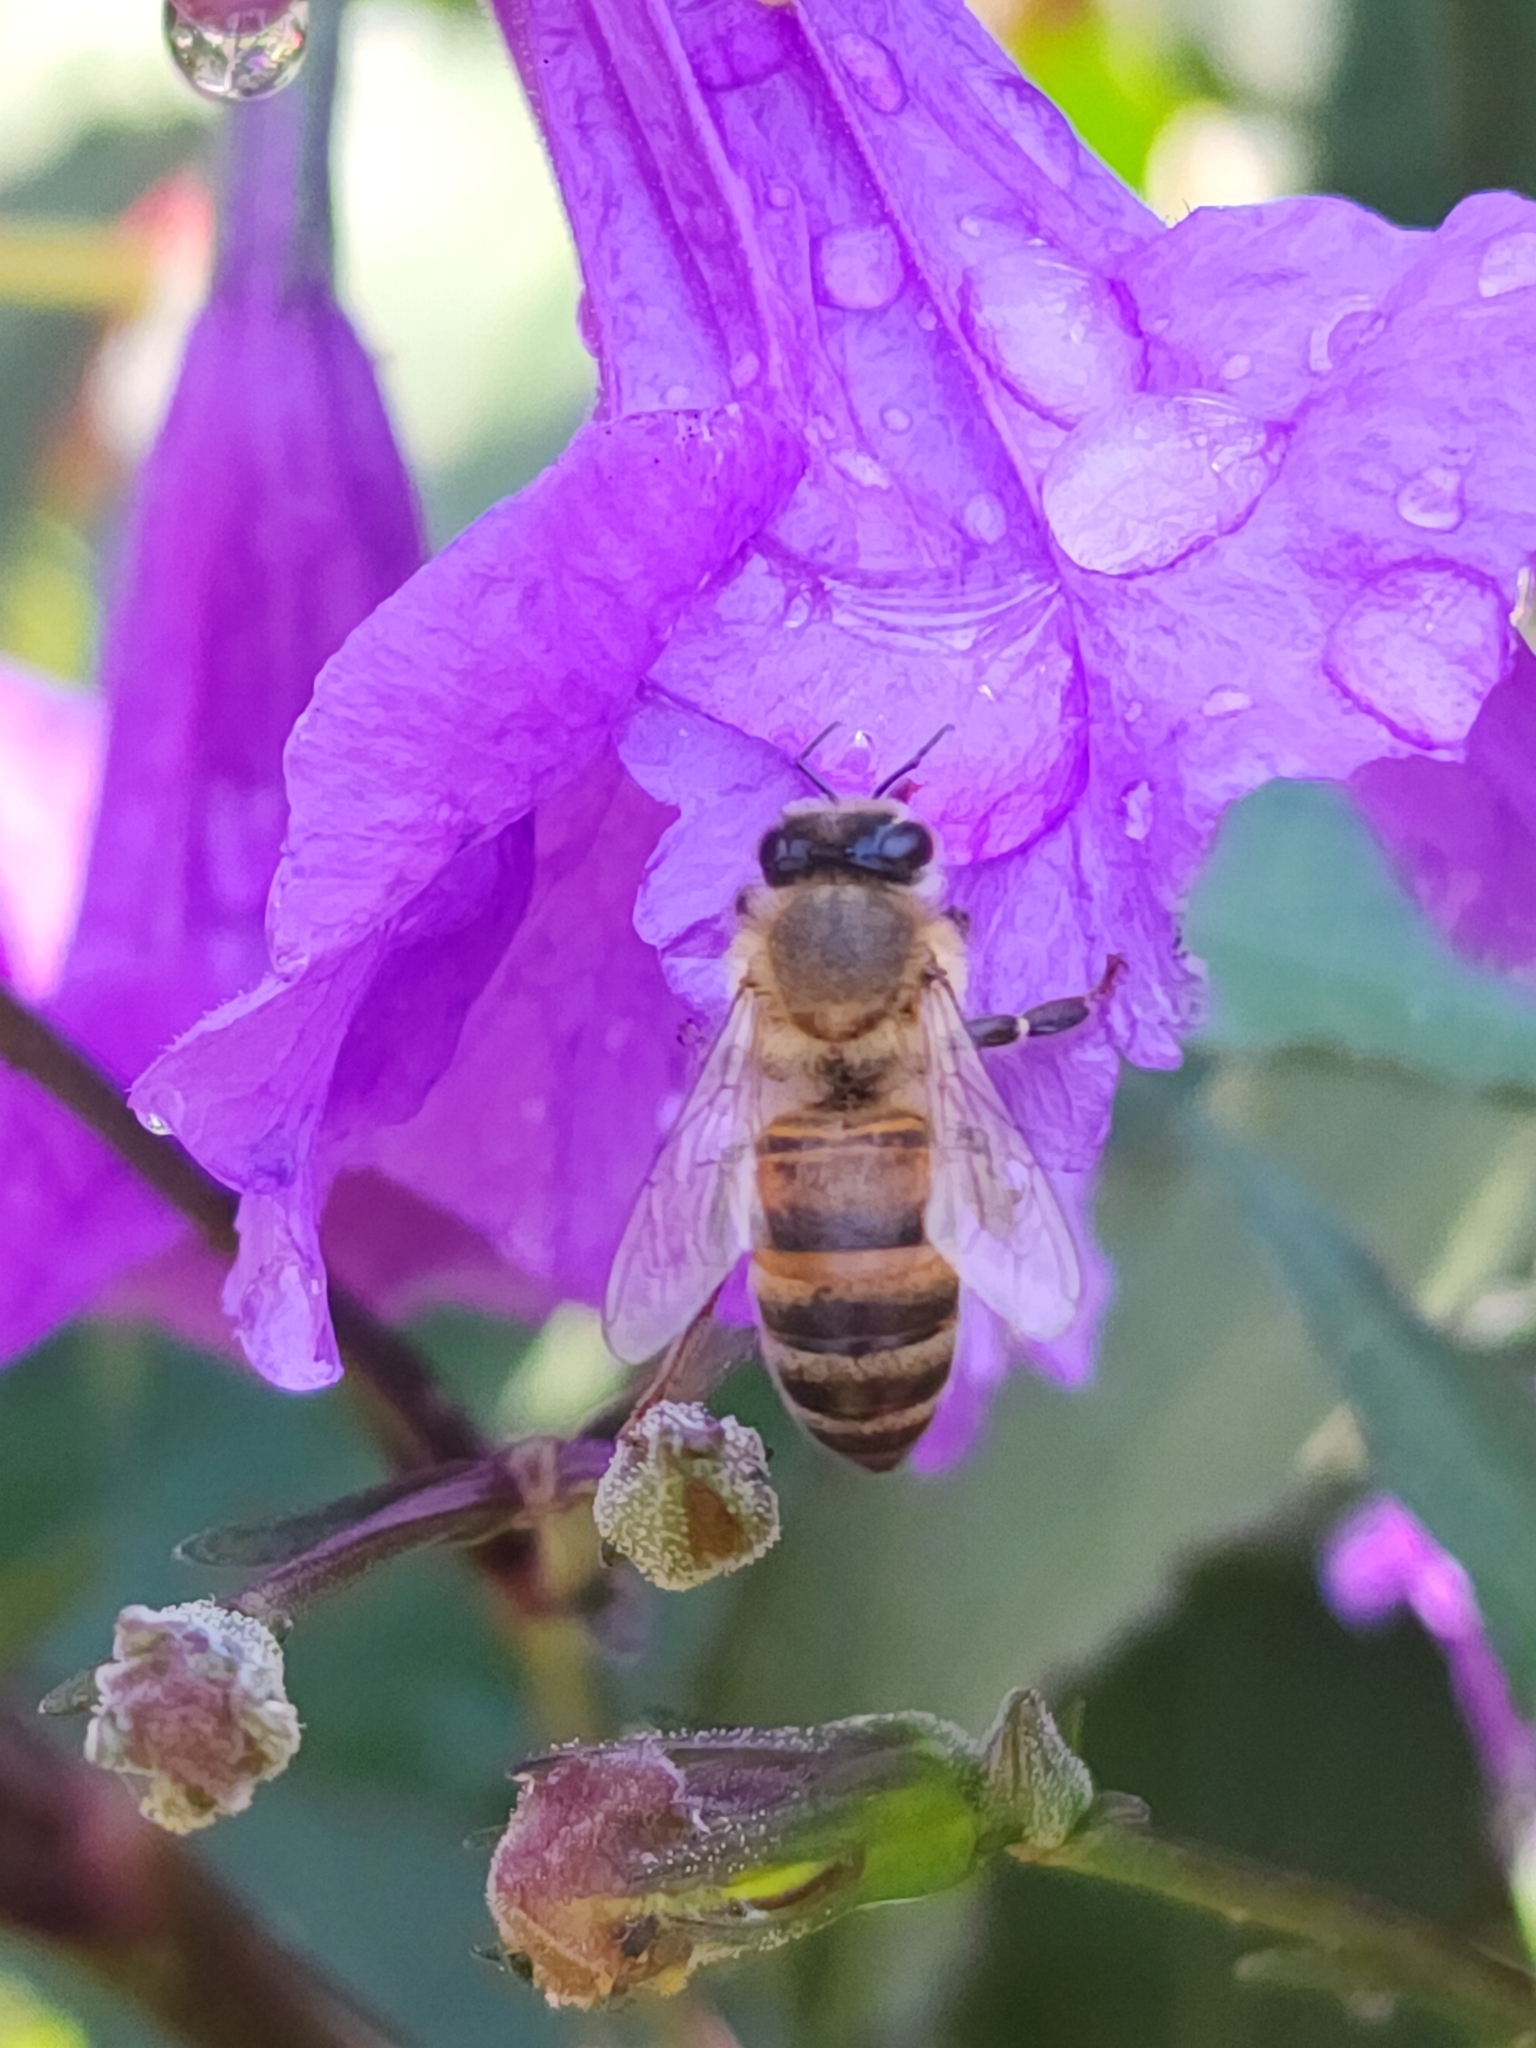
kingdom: Animalia
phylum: Arthropoda
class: Insecta
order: Hymenoptera
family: Apidae
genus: Apis
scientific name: Apis mellifera
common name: Honey bee
